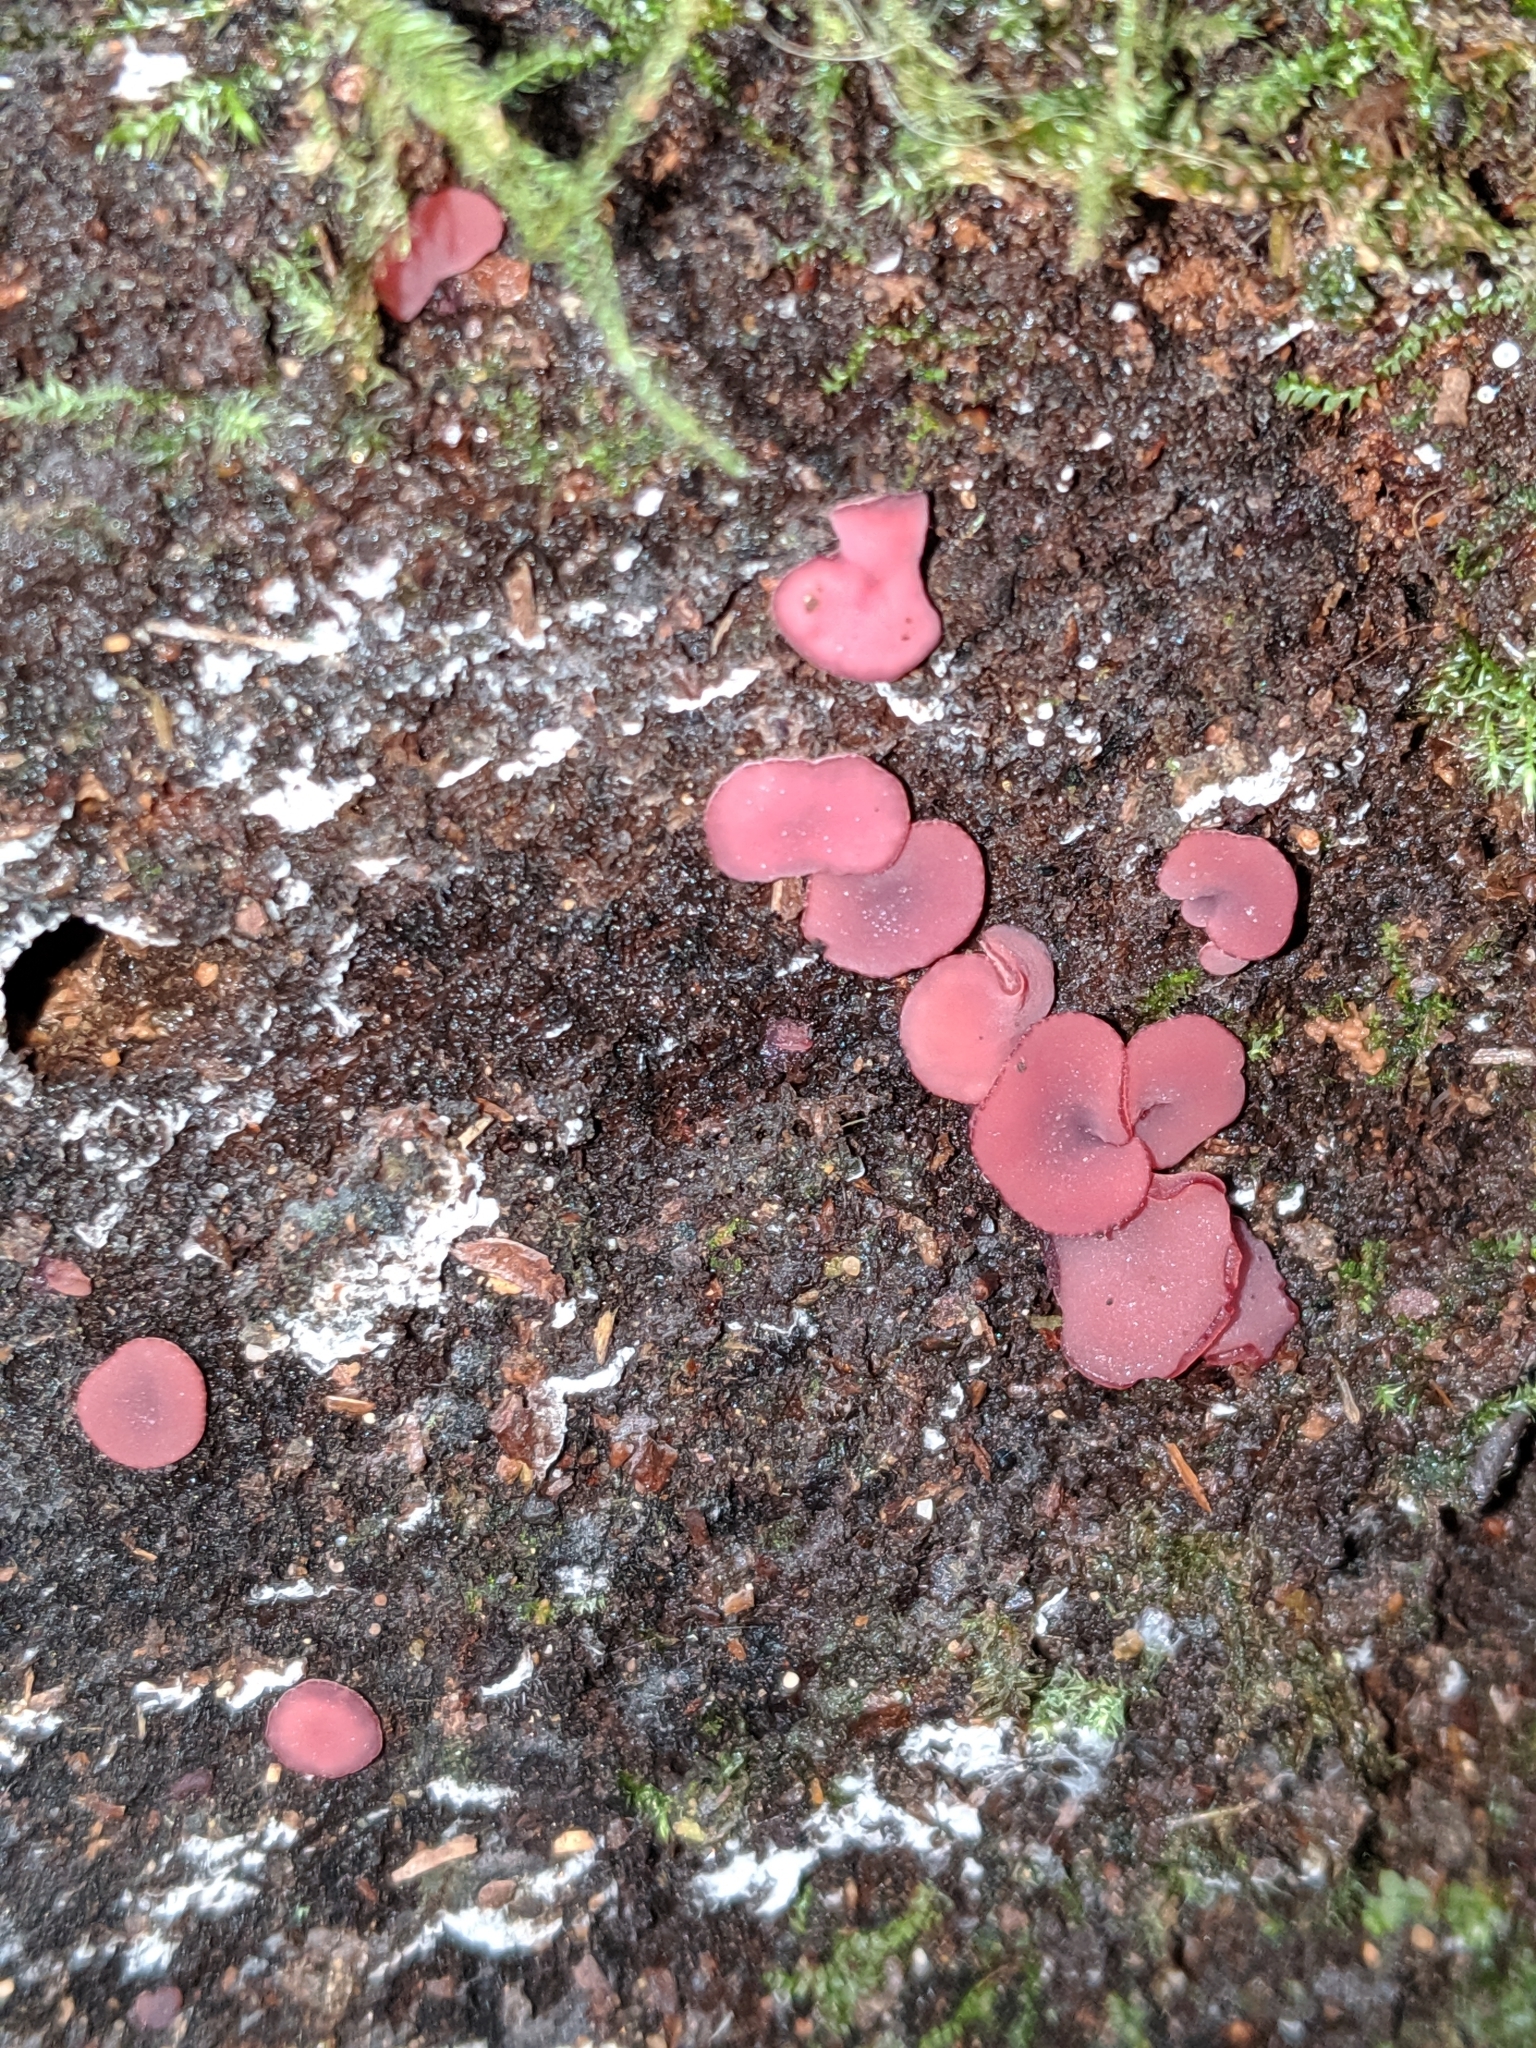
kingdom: Fungi
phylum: Ascomycota
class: Leotiomycetes
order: Helotiales
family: Gelatinodiscaceae
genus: Ascocoryne
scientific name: Ascocoryne sarcoides
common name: Purple jellydisc
